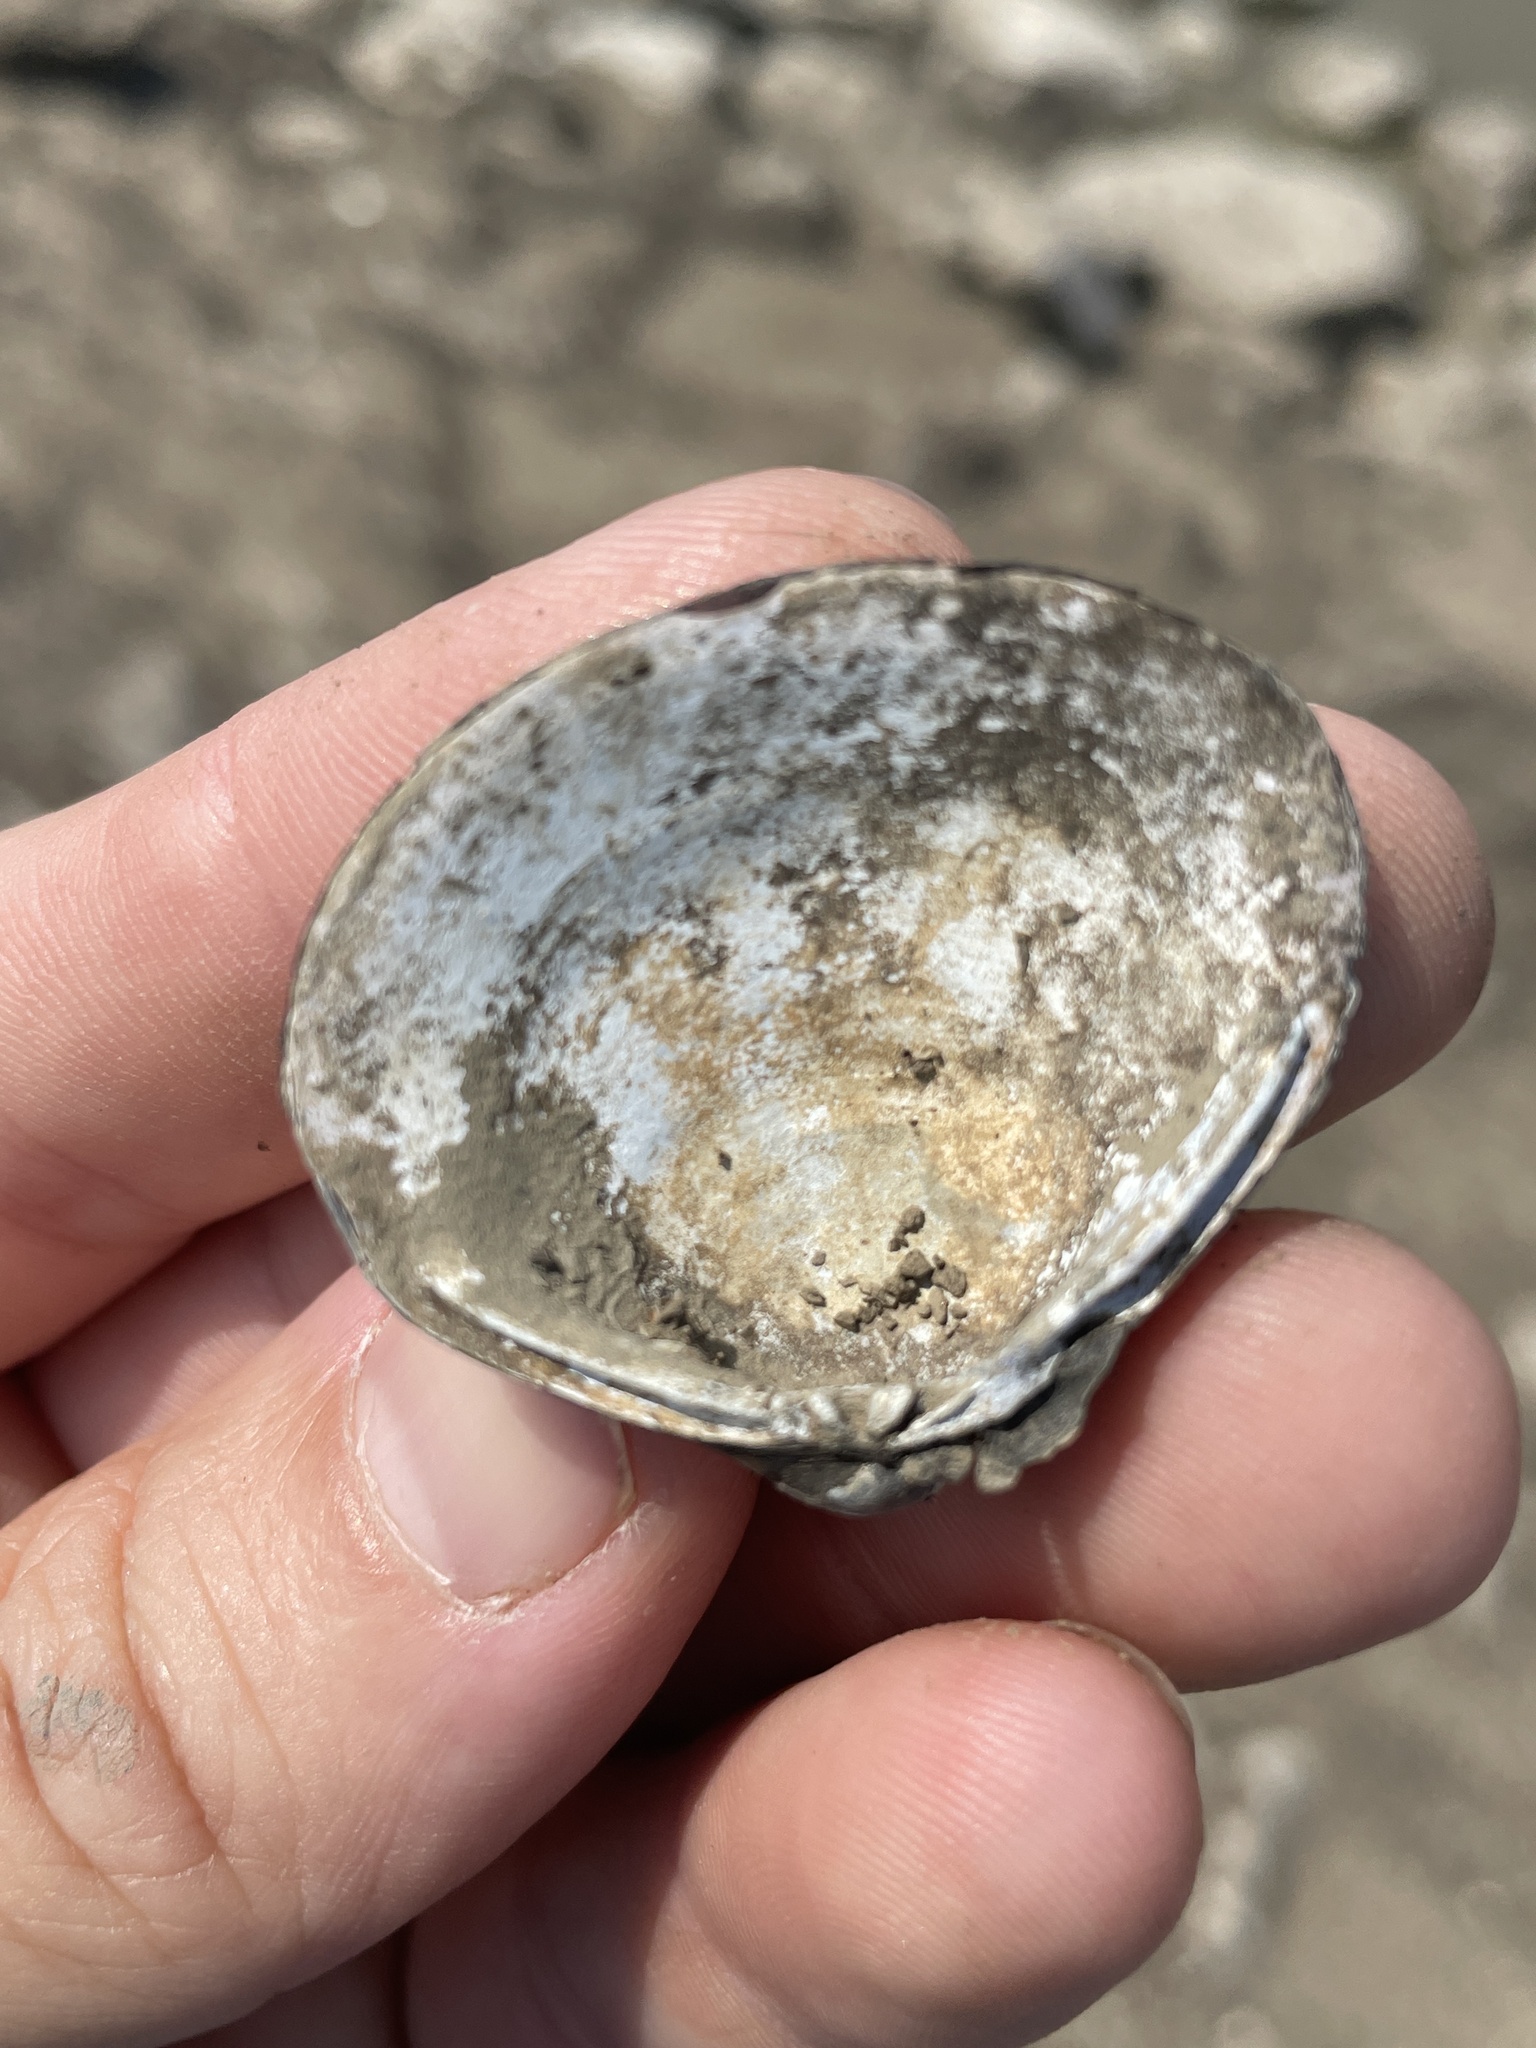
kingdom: Animalia
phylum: Mollusca
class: Bivalvia
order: Venerida
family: Cyrenidae
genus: Corbicula
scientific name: Corbicula fluminea
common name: Asian clam
